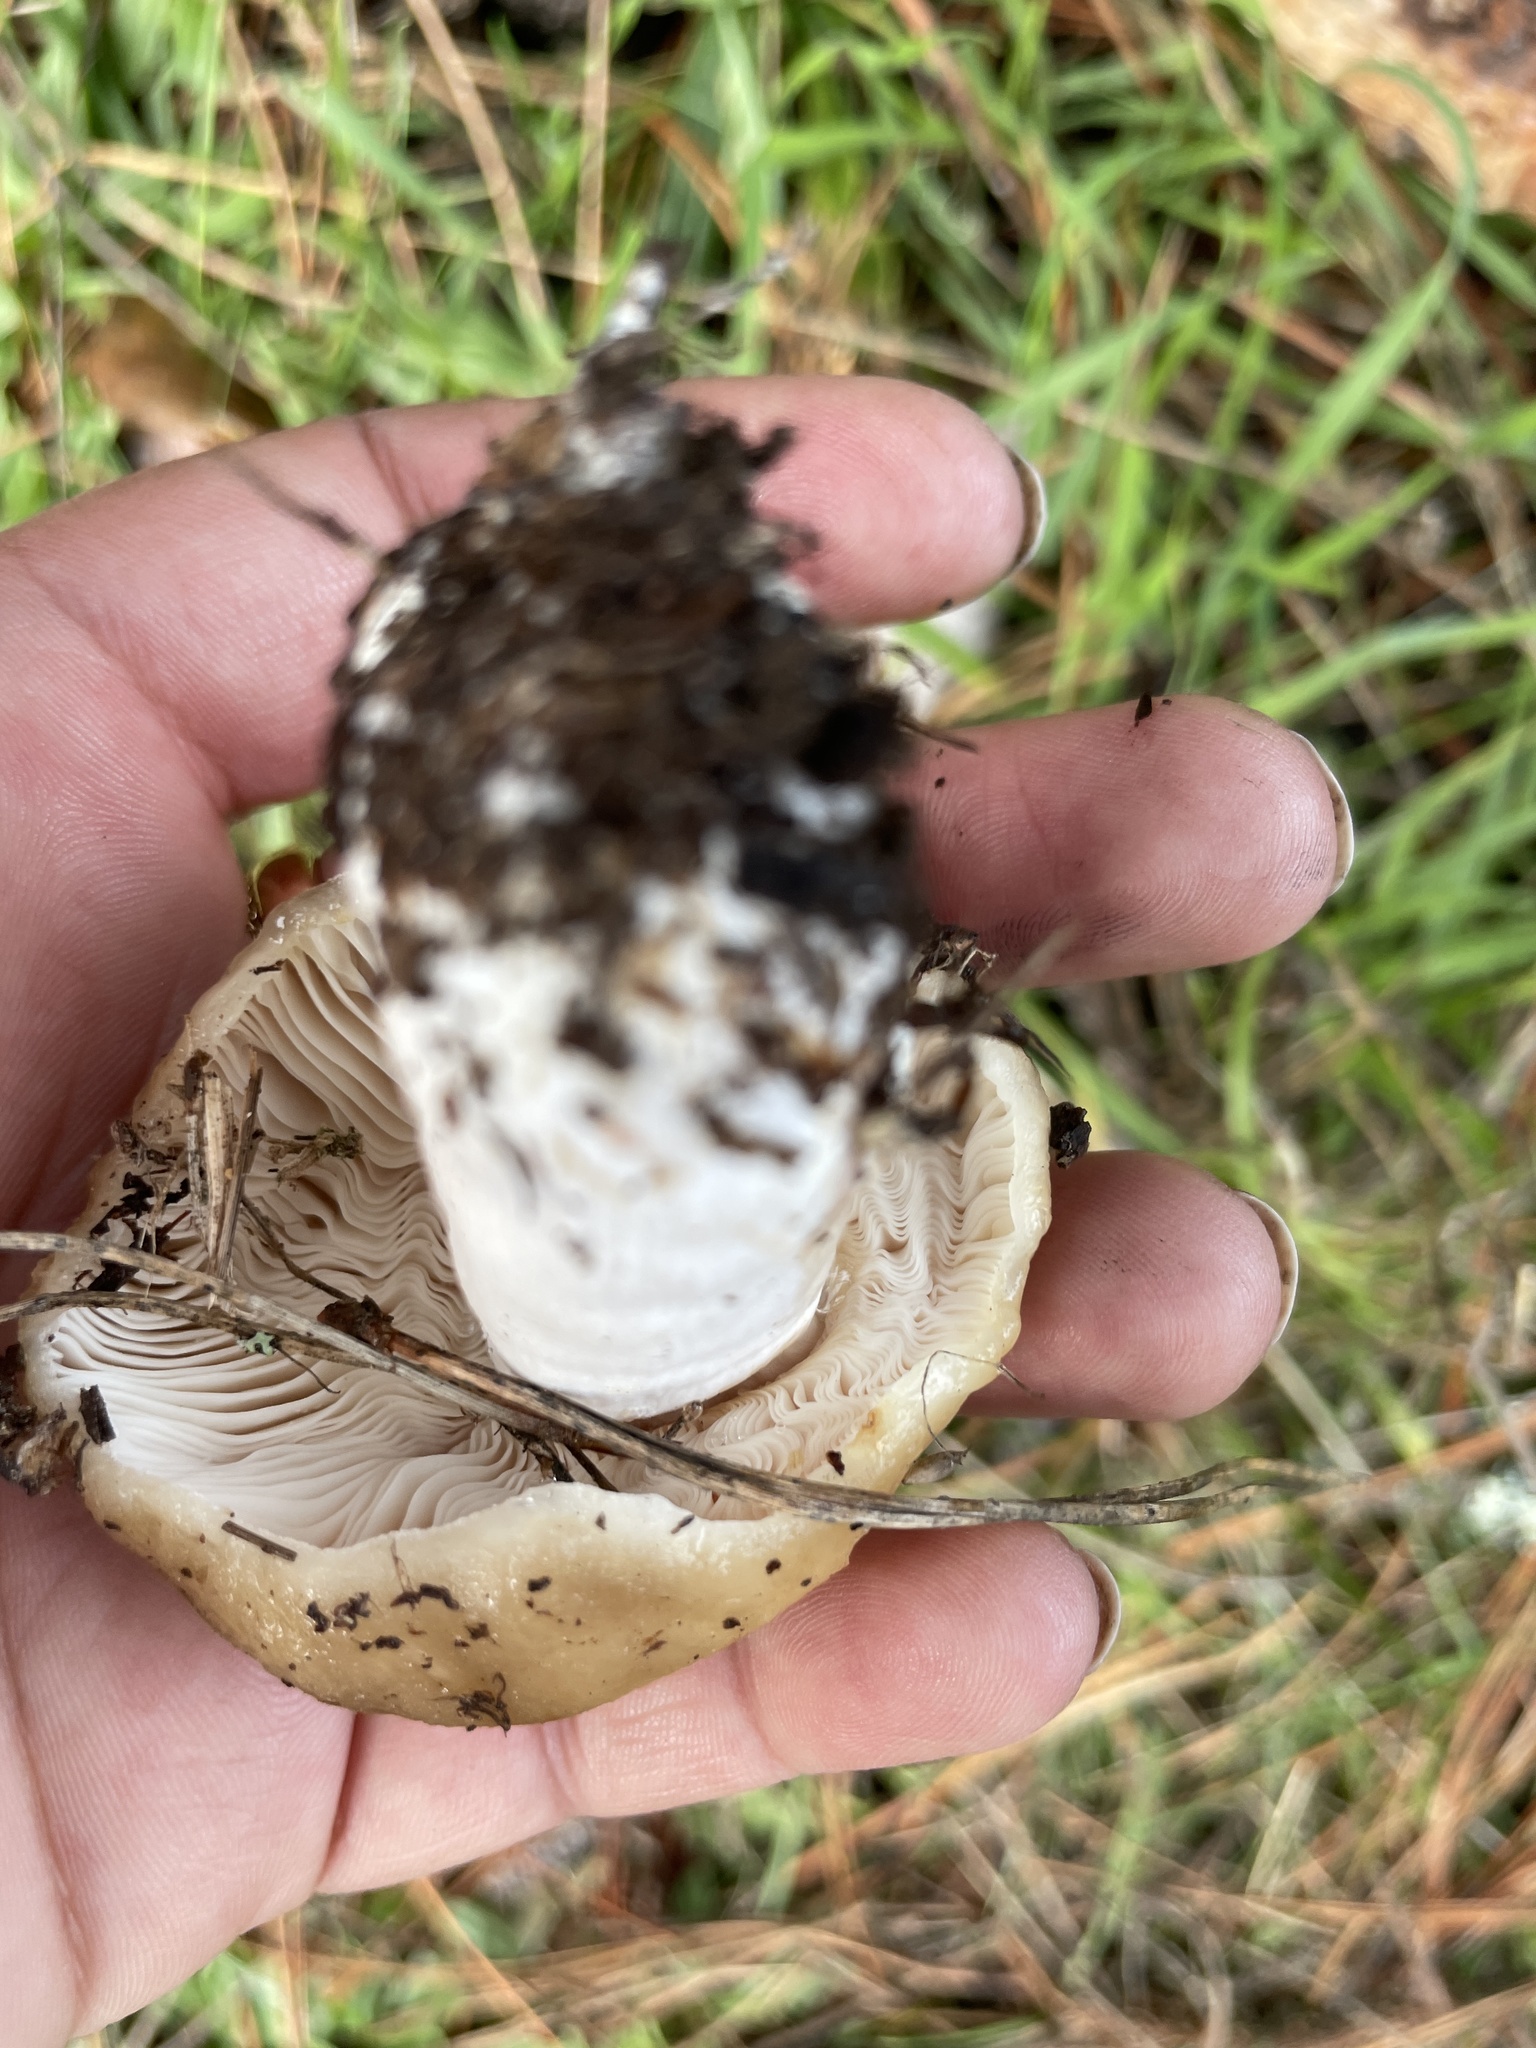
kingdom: Fungi
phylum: Basidiomycota
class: Agaricomycetes
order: Russulales
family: Russulaceae
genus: Russula
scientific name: Russula cerolens
